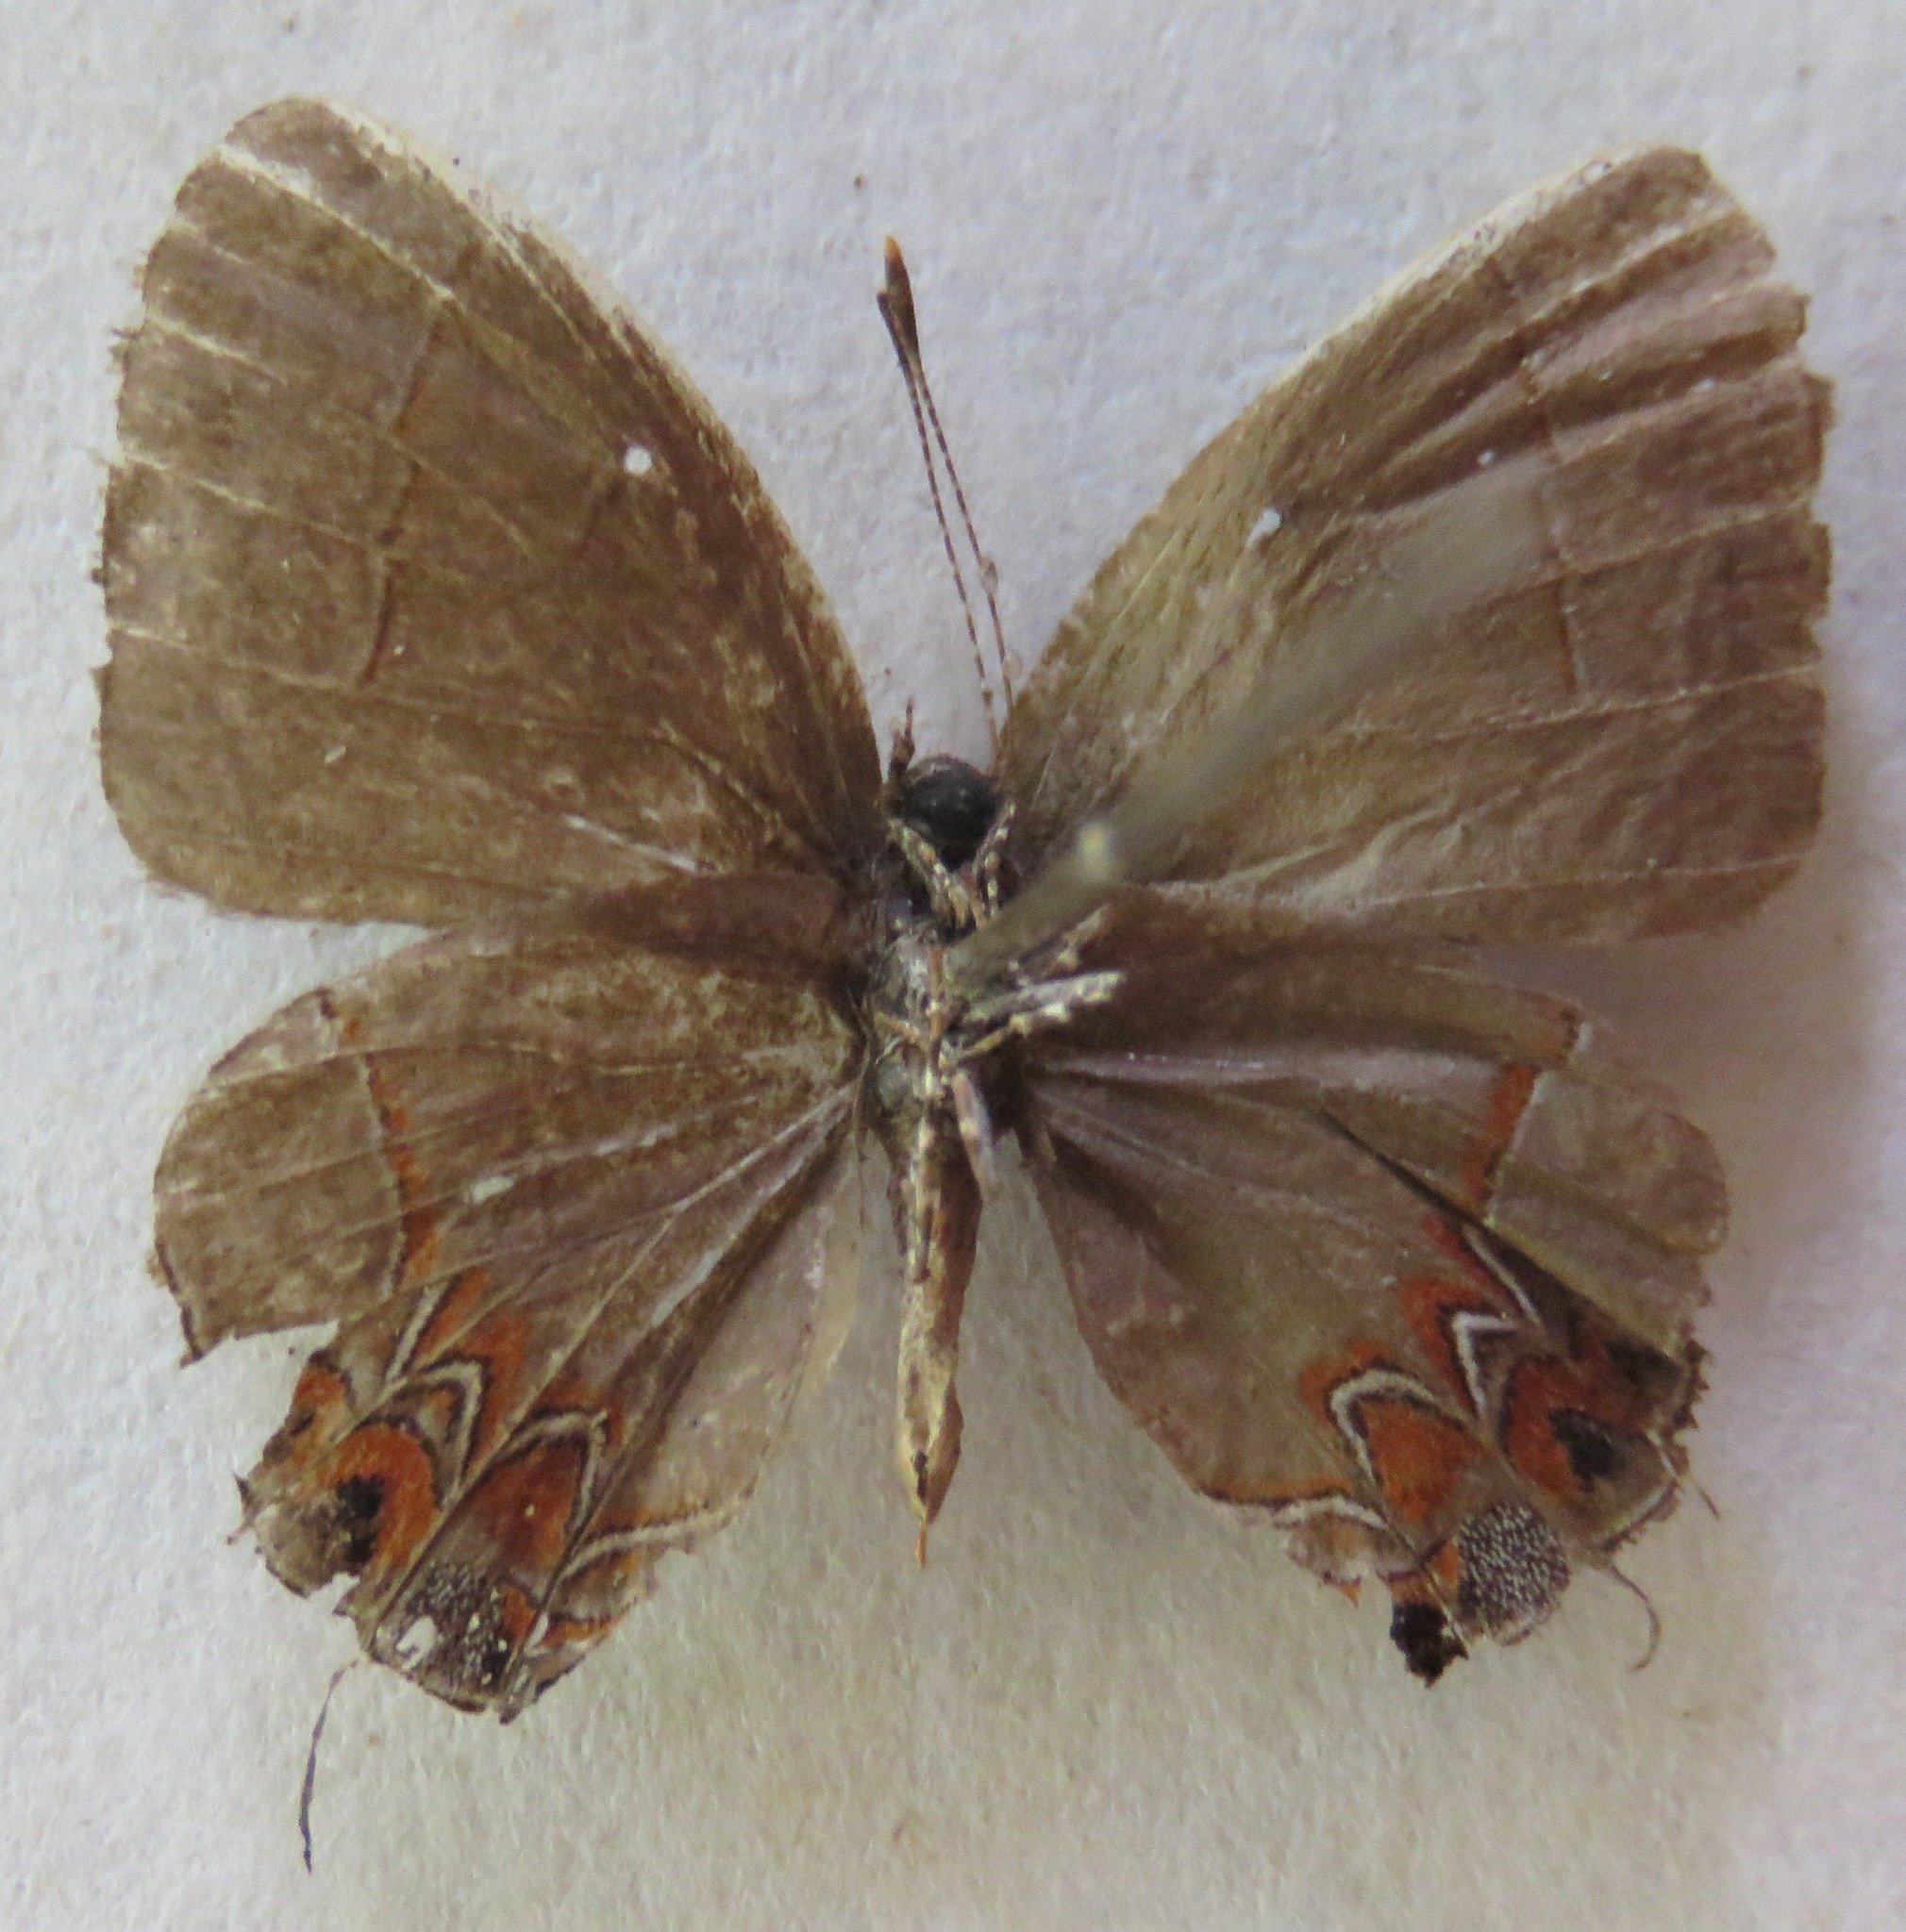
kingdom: Animalia
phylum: Arthropoda
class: Insecta
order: Lepidoptera
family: Lycaenidae
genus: Calycopis
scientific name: Calycopis
